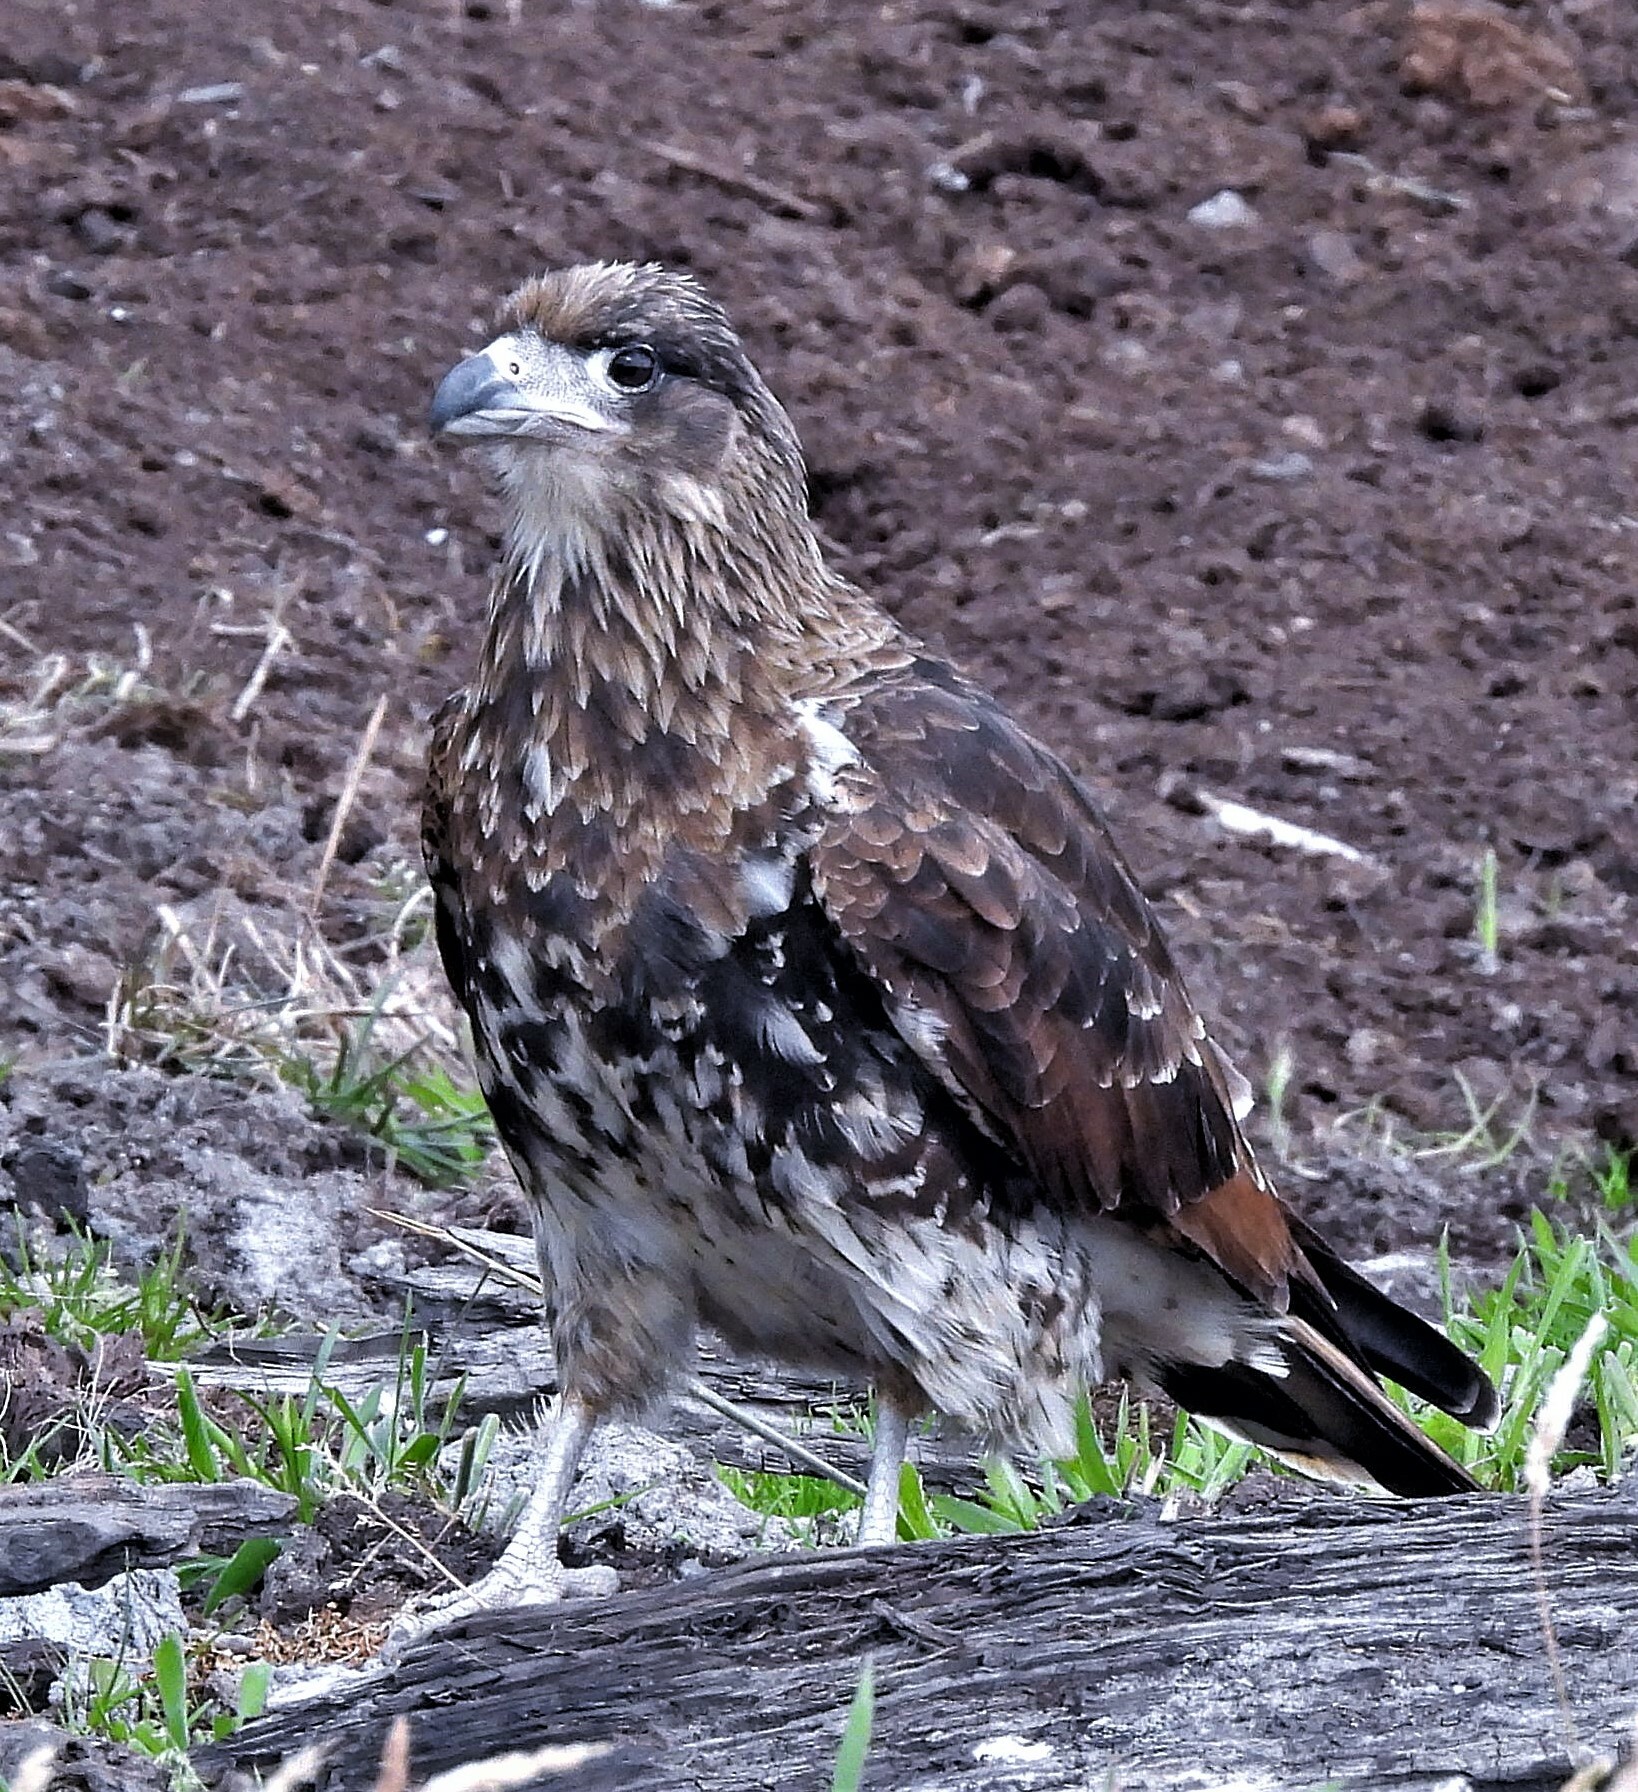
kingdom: Animalia
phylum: Chordata
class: Aves
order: Falconiformes
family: Falconidae
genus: Daptrius
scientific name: Daptrius
